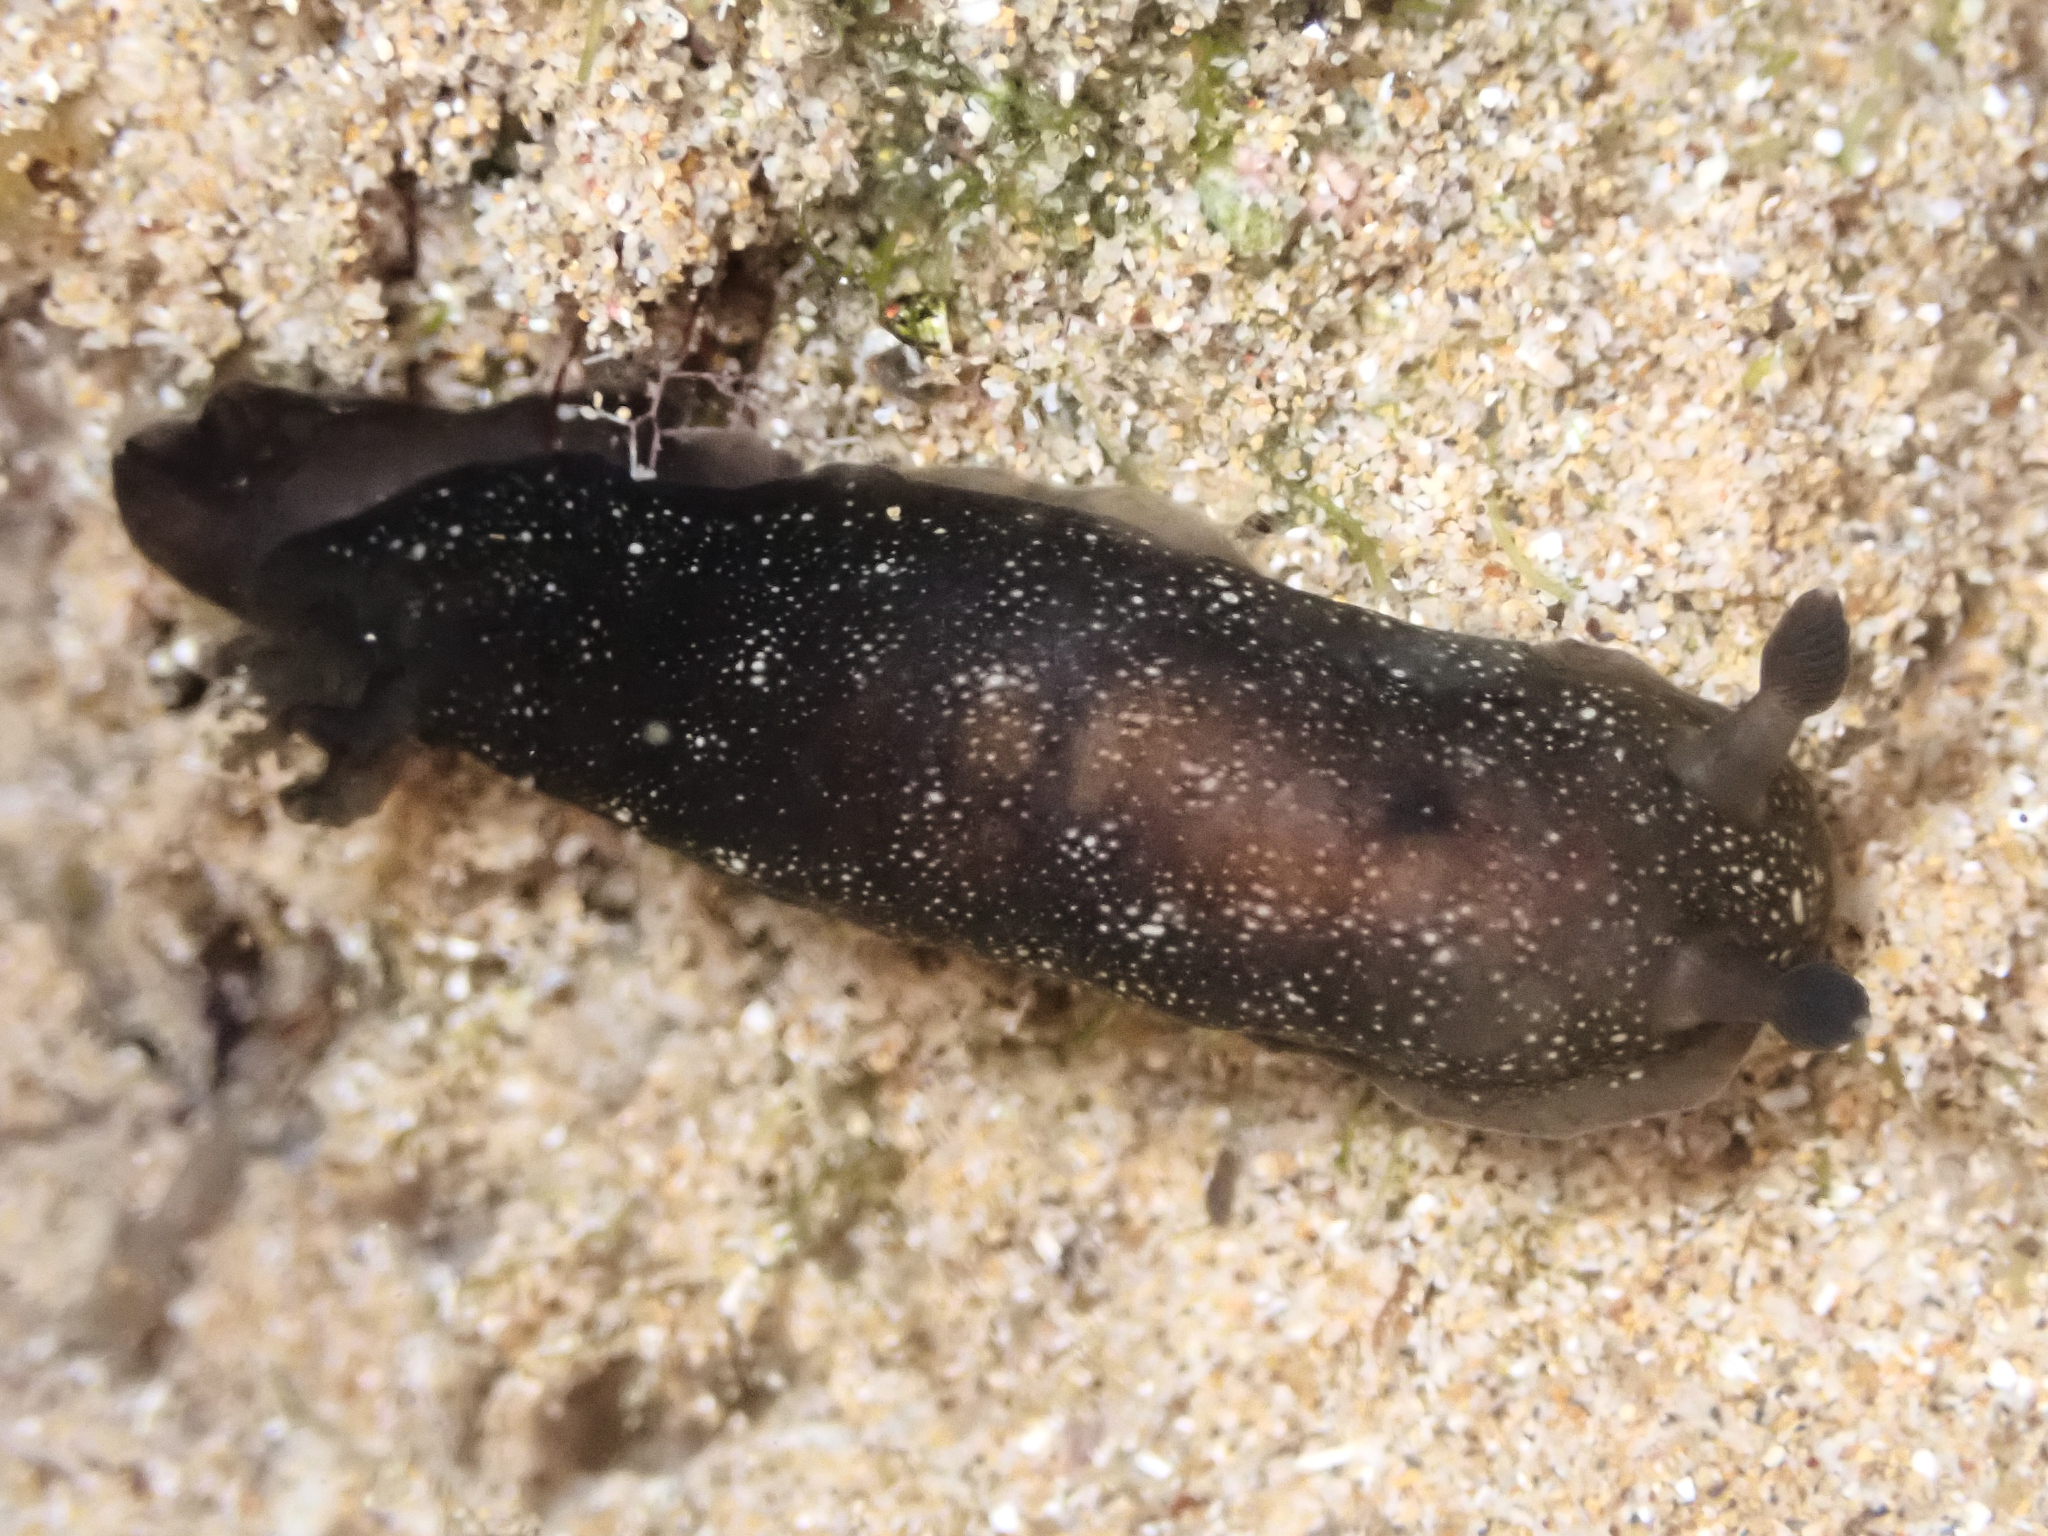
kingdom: Animalia
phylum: Mollusca
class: Gastropoda
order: Nudibranchia
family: Dendrodorididae
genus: Dendrodoris
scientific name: Dendrodoris nigra
